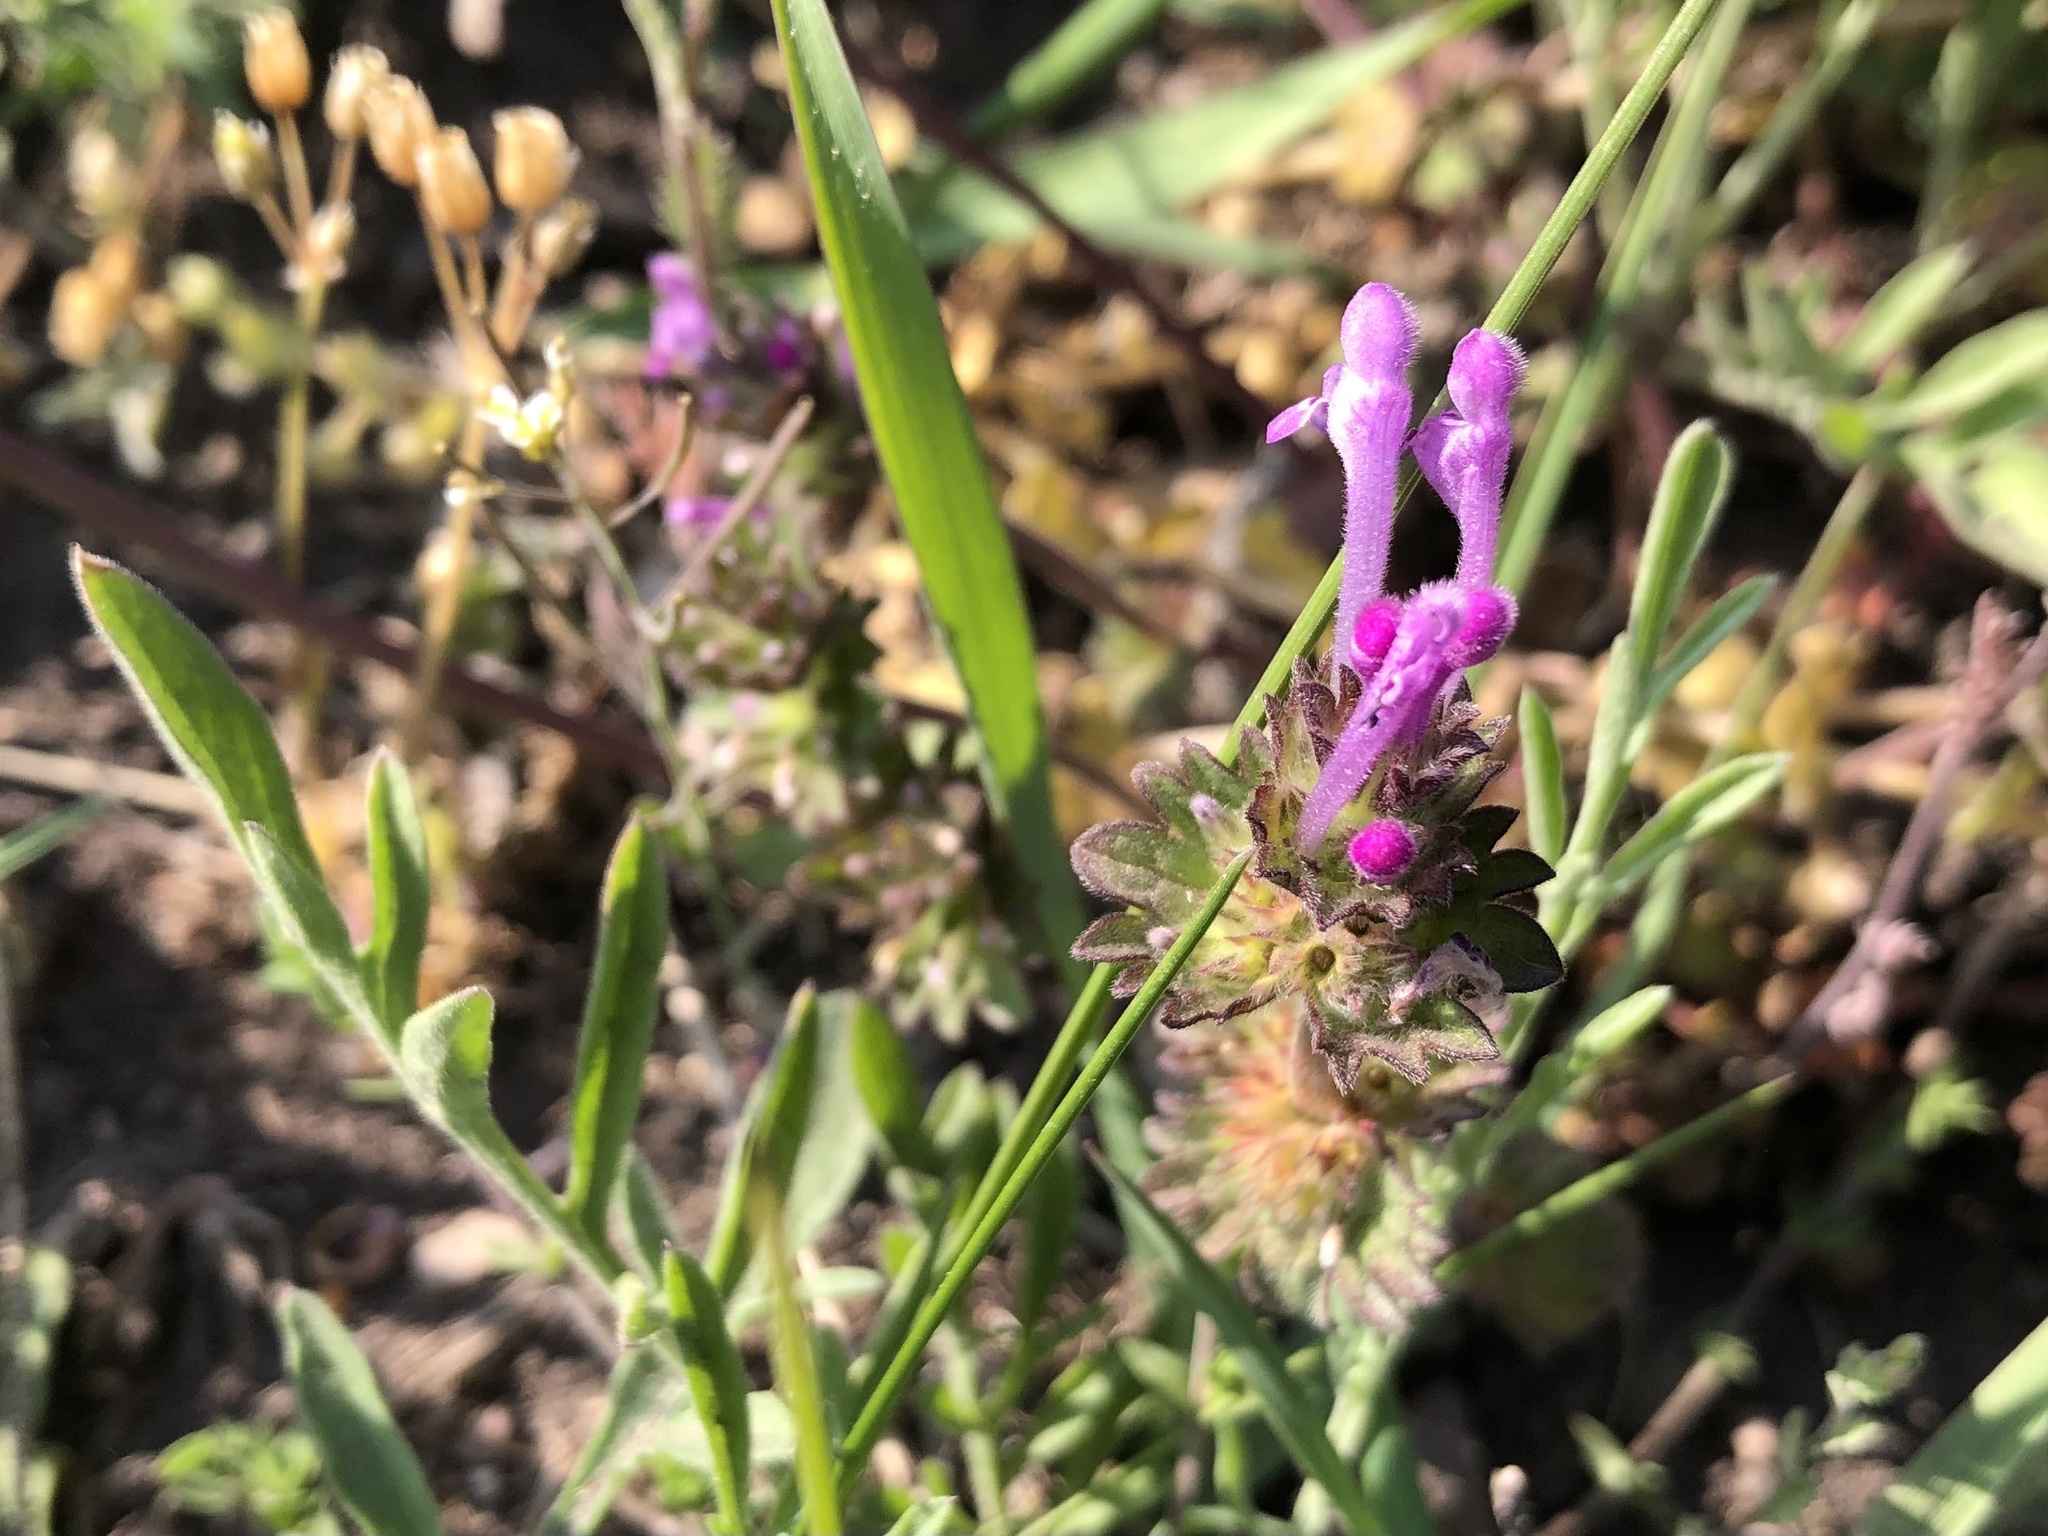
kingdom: Plantae
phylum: Tracheophyta
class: Magnoliopsida
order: Lamiales
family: Lamiaceae
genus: Lamium
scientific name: Lamium amplexicaule
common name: Henbit dead-nettle
